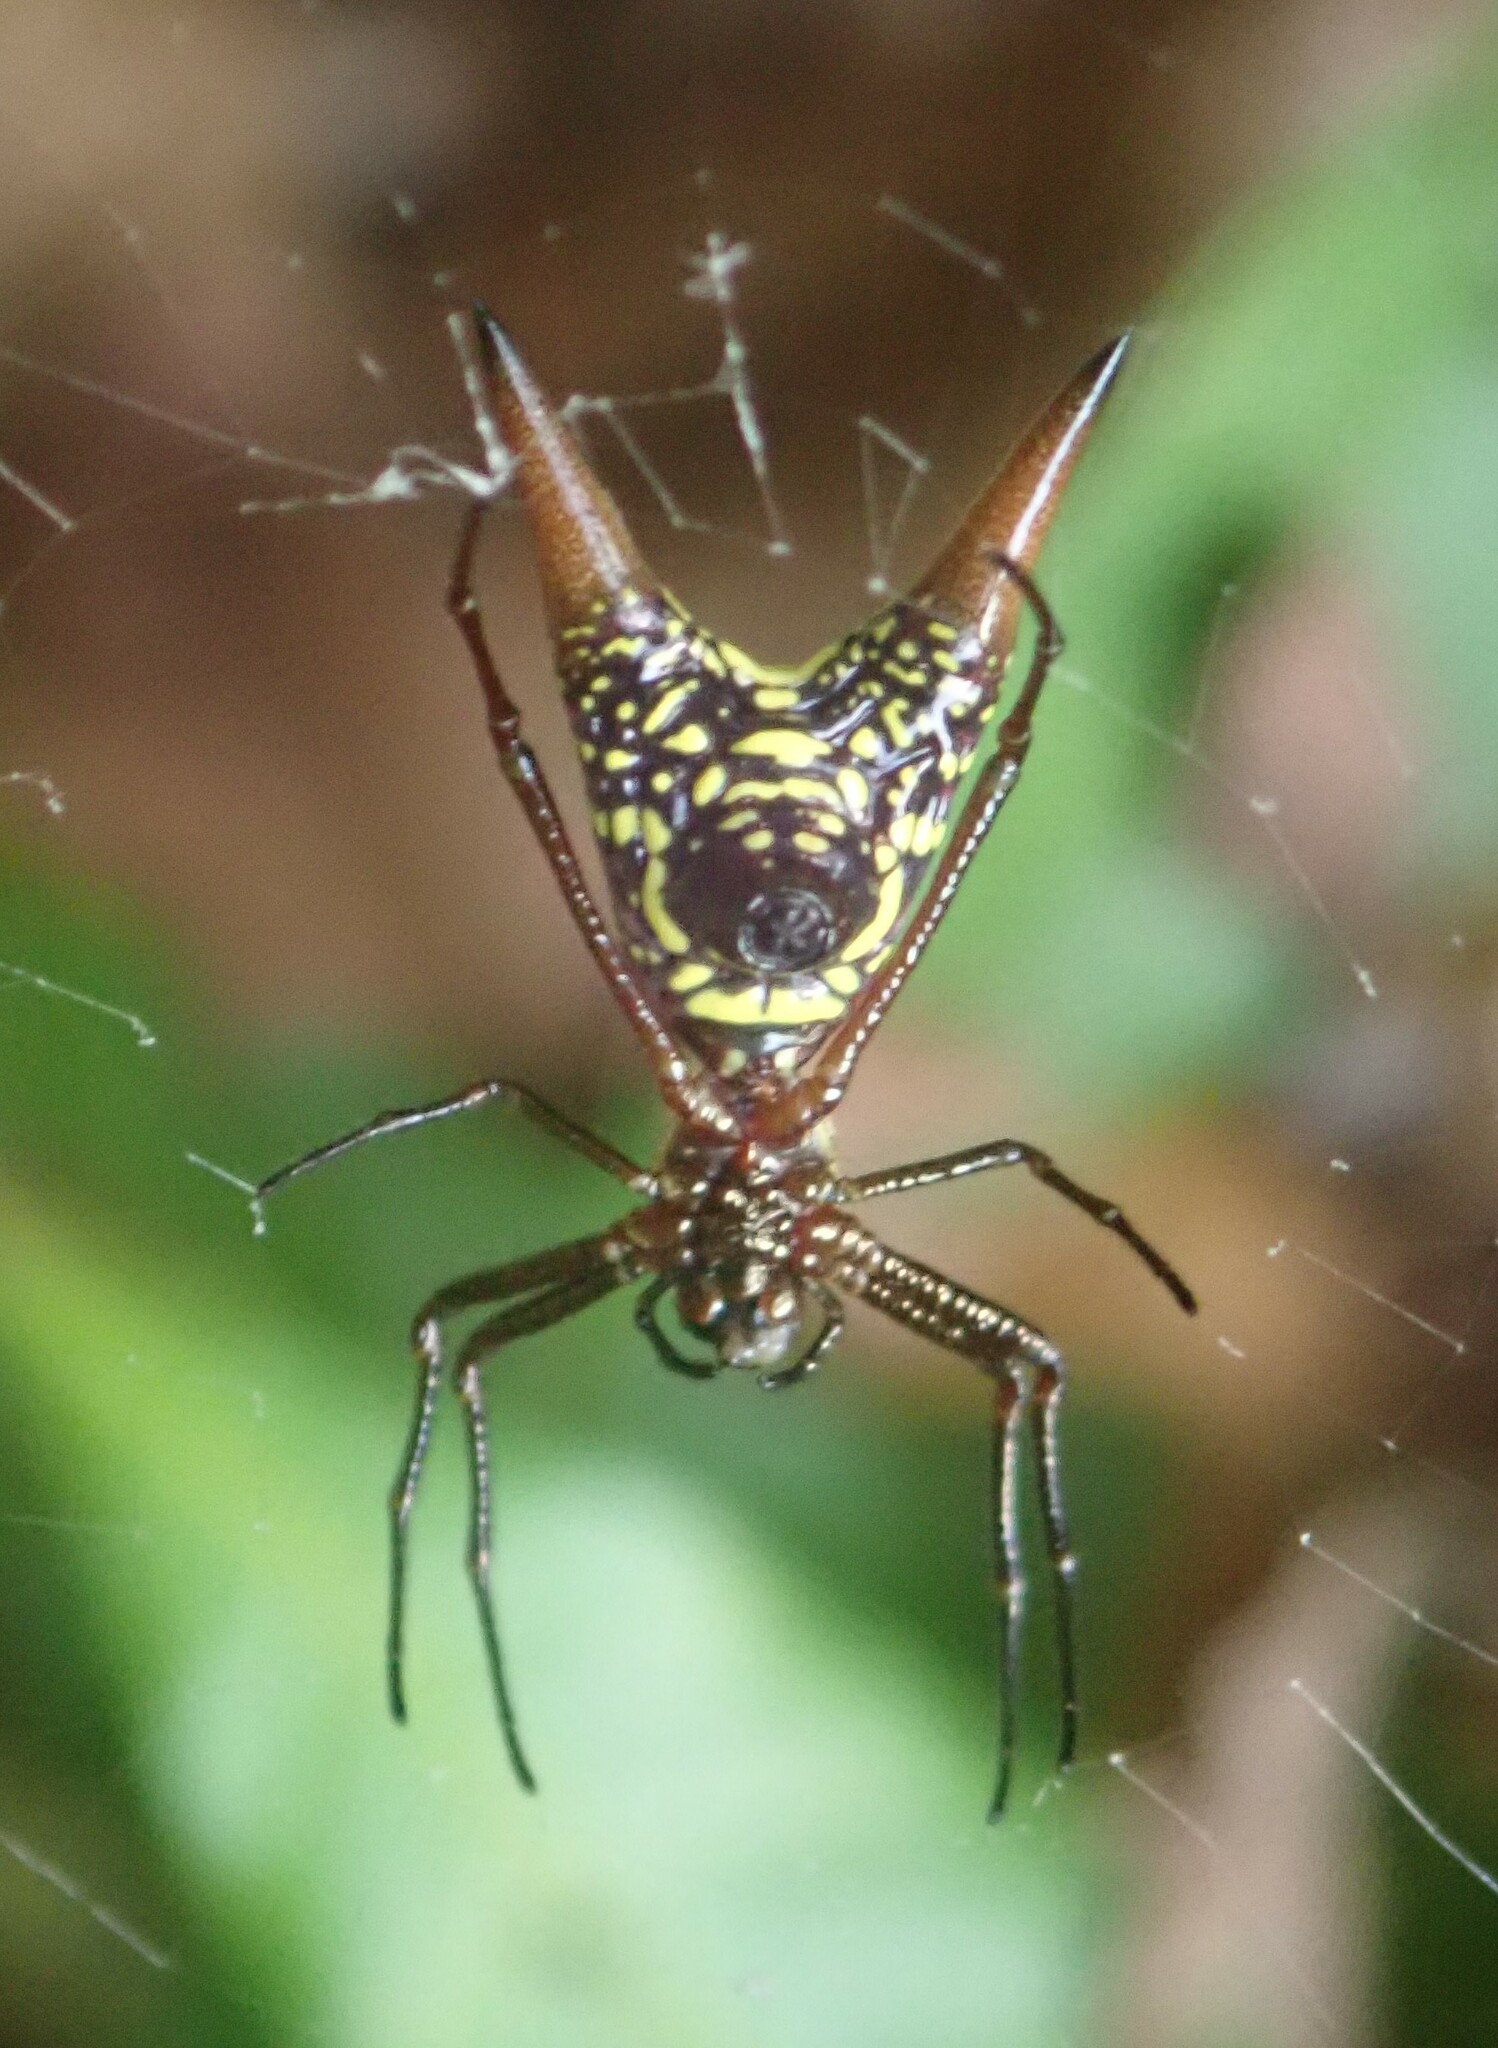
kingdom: Animalia
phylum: Arthropoda
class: Arachnida
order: Araneae
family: Araneidae
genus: Micrathena
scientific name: Micrathena sexspinosa
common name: Orb weavers
